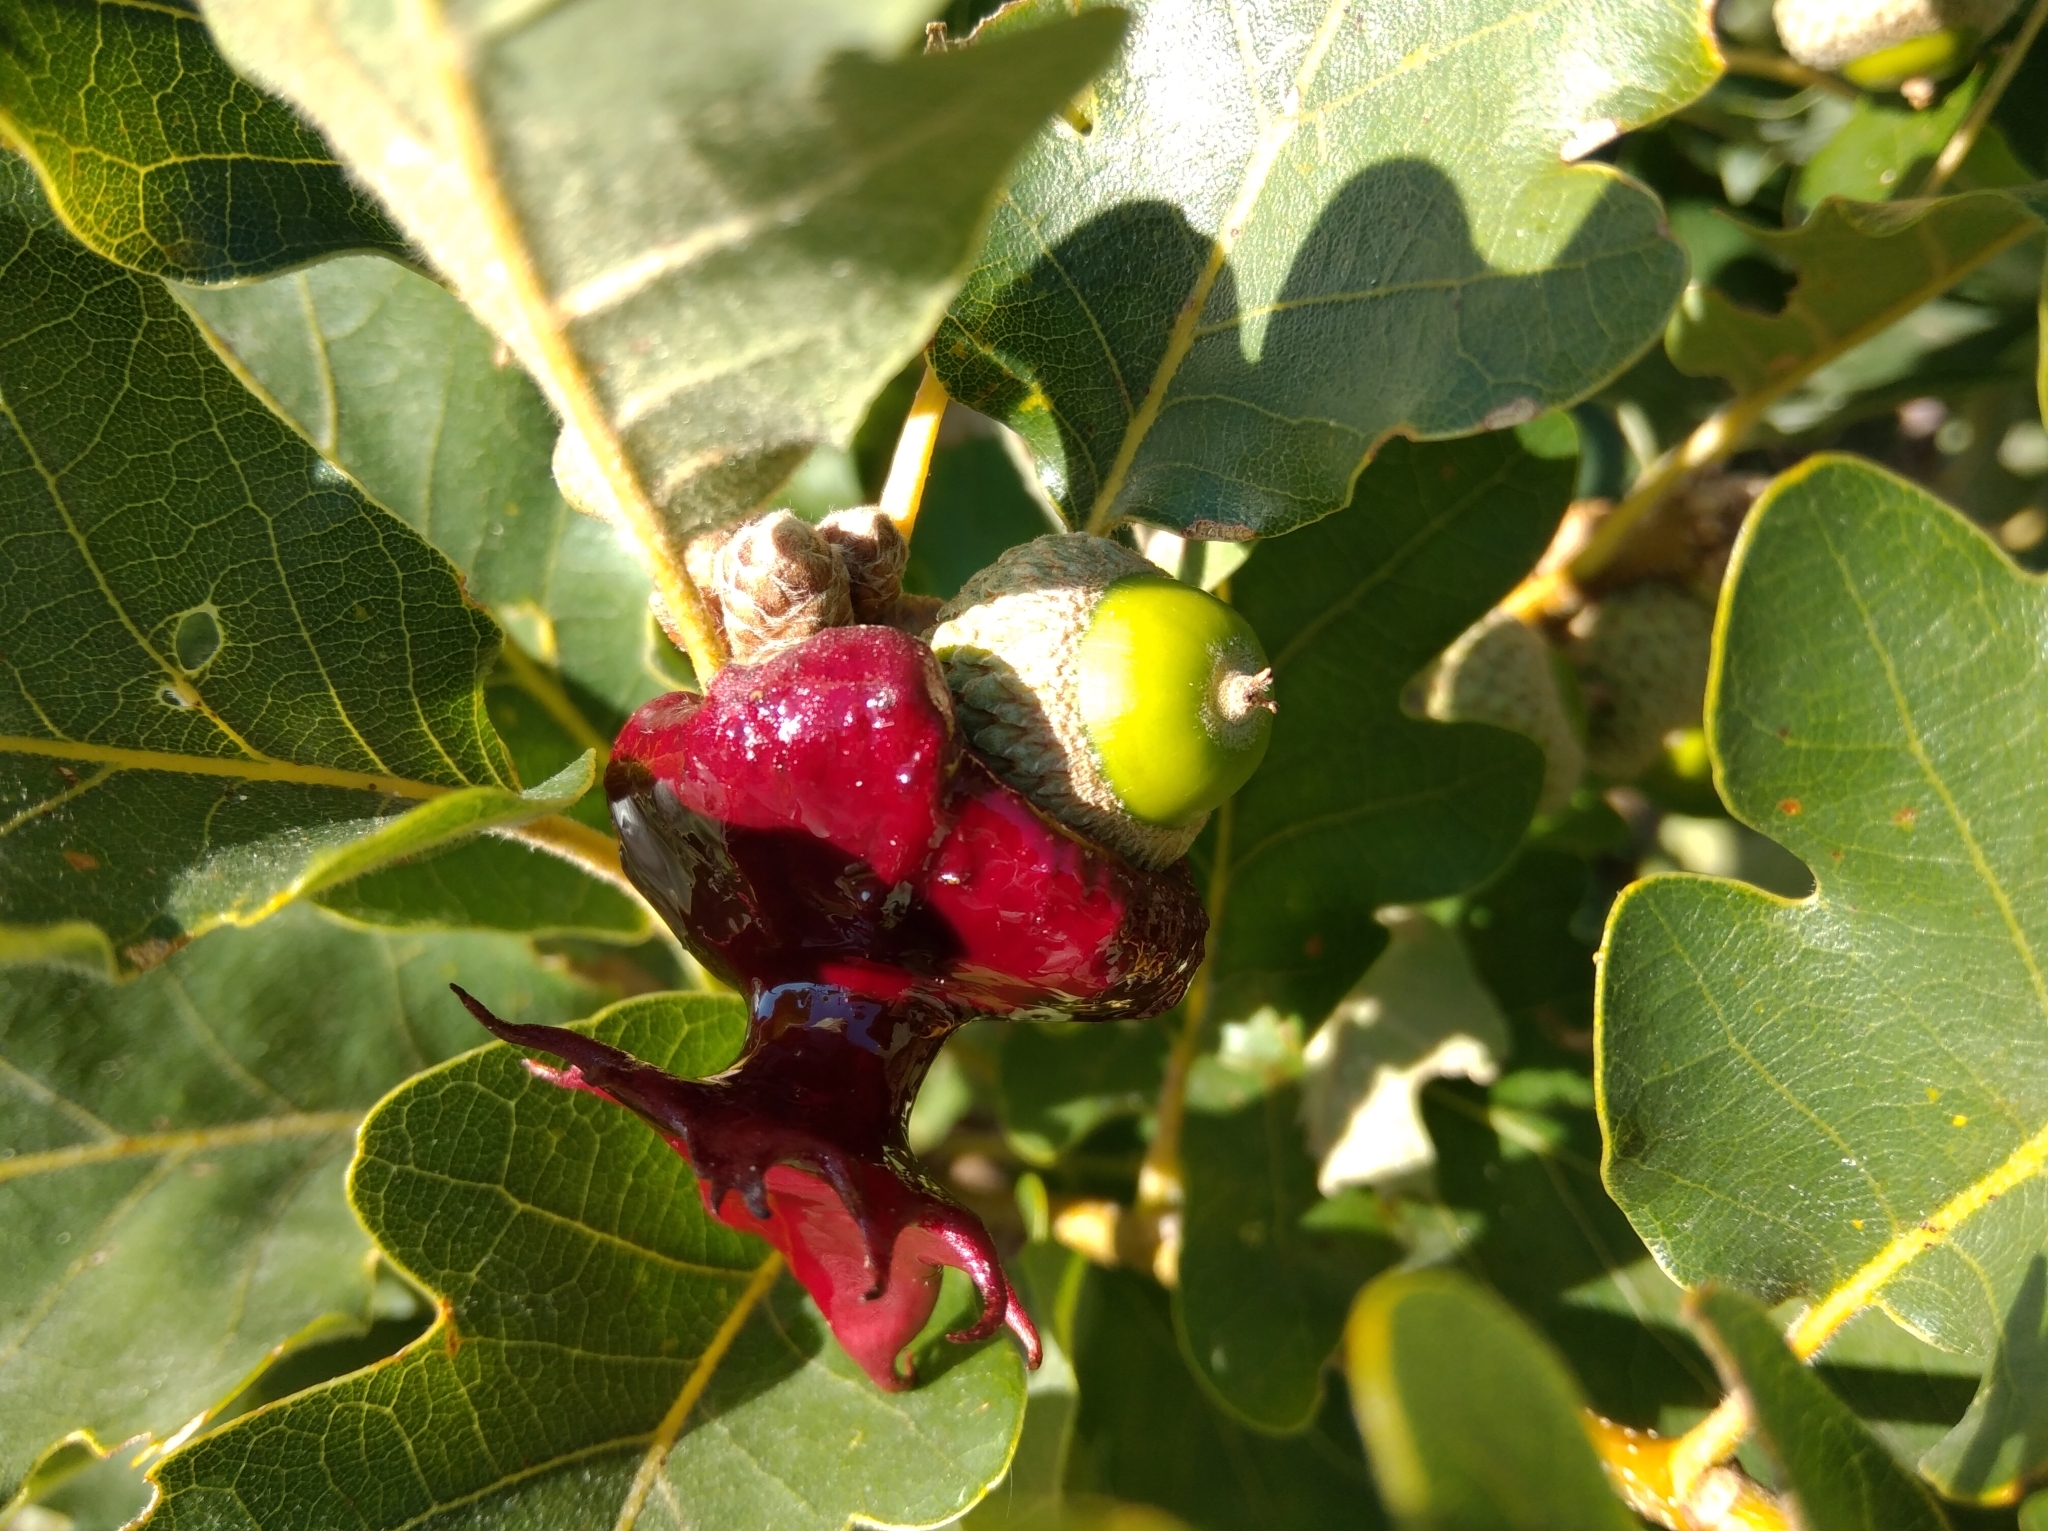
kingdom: Animalia
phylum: Arthropoda
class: Insecta
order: Hymenoptera
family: Cynipidae
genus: Andricus
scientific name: Andricus dentimitratus
